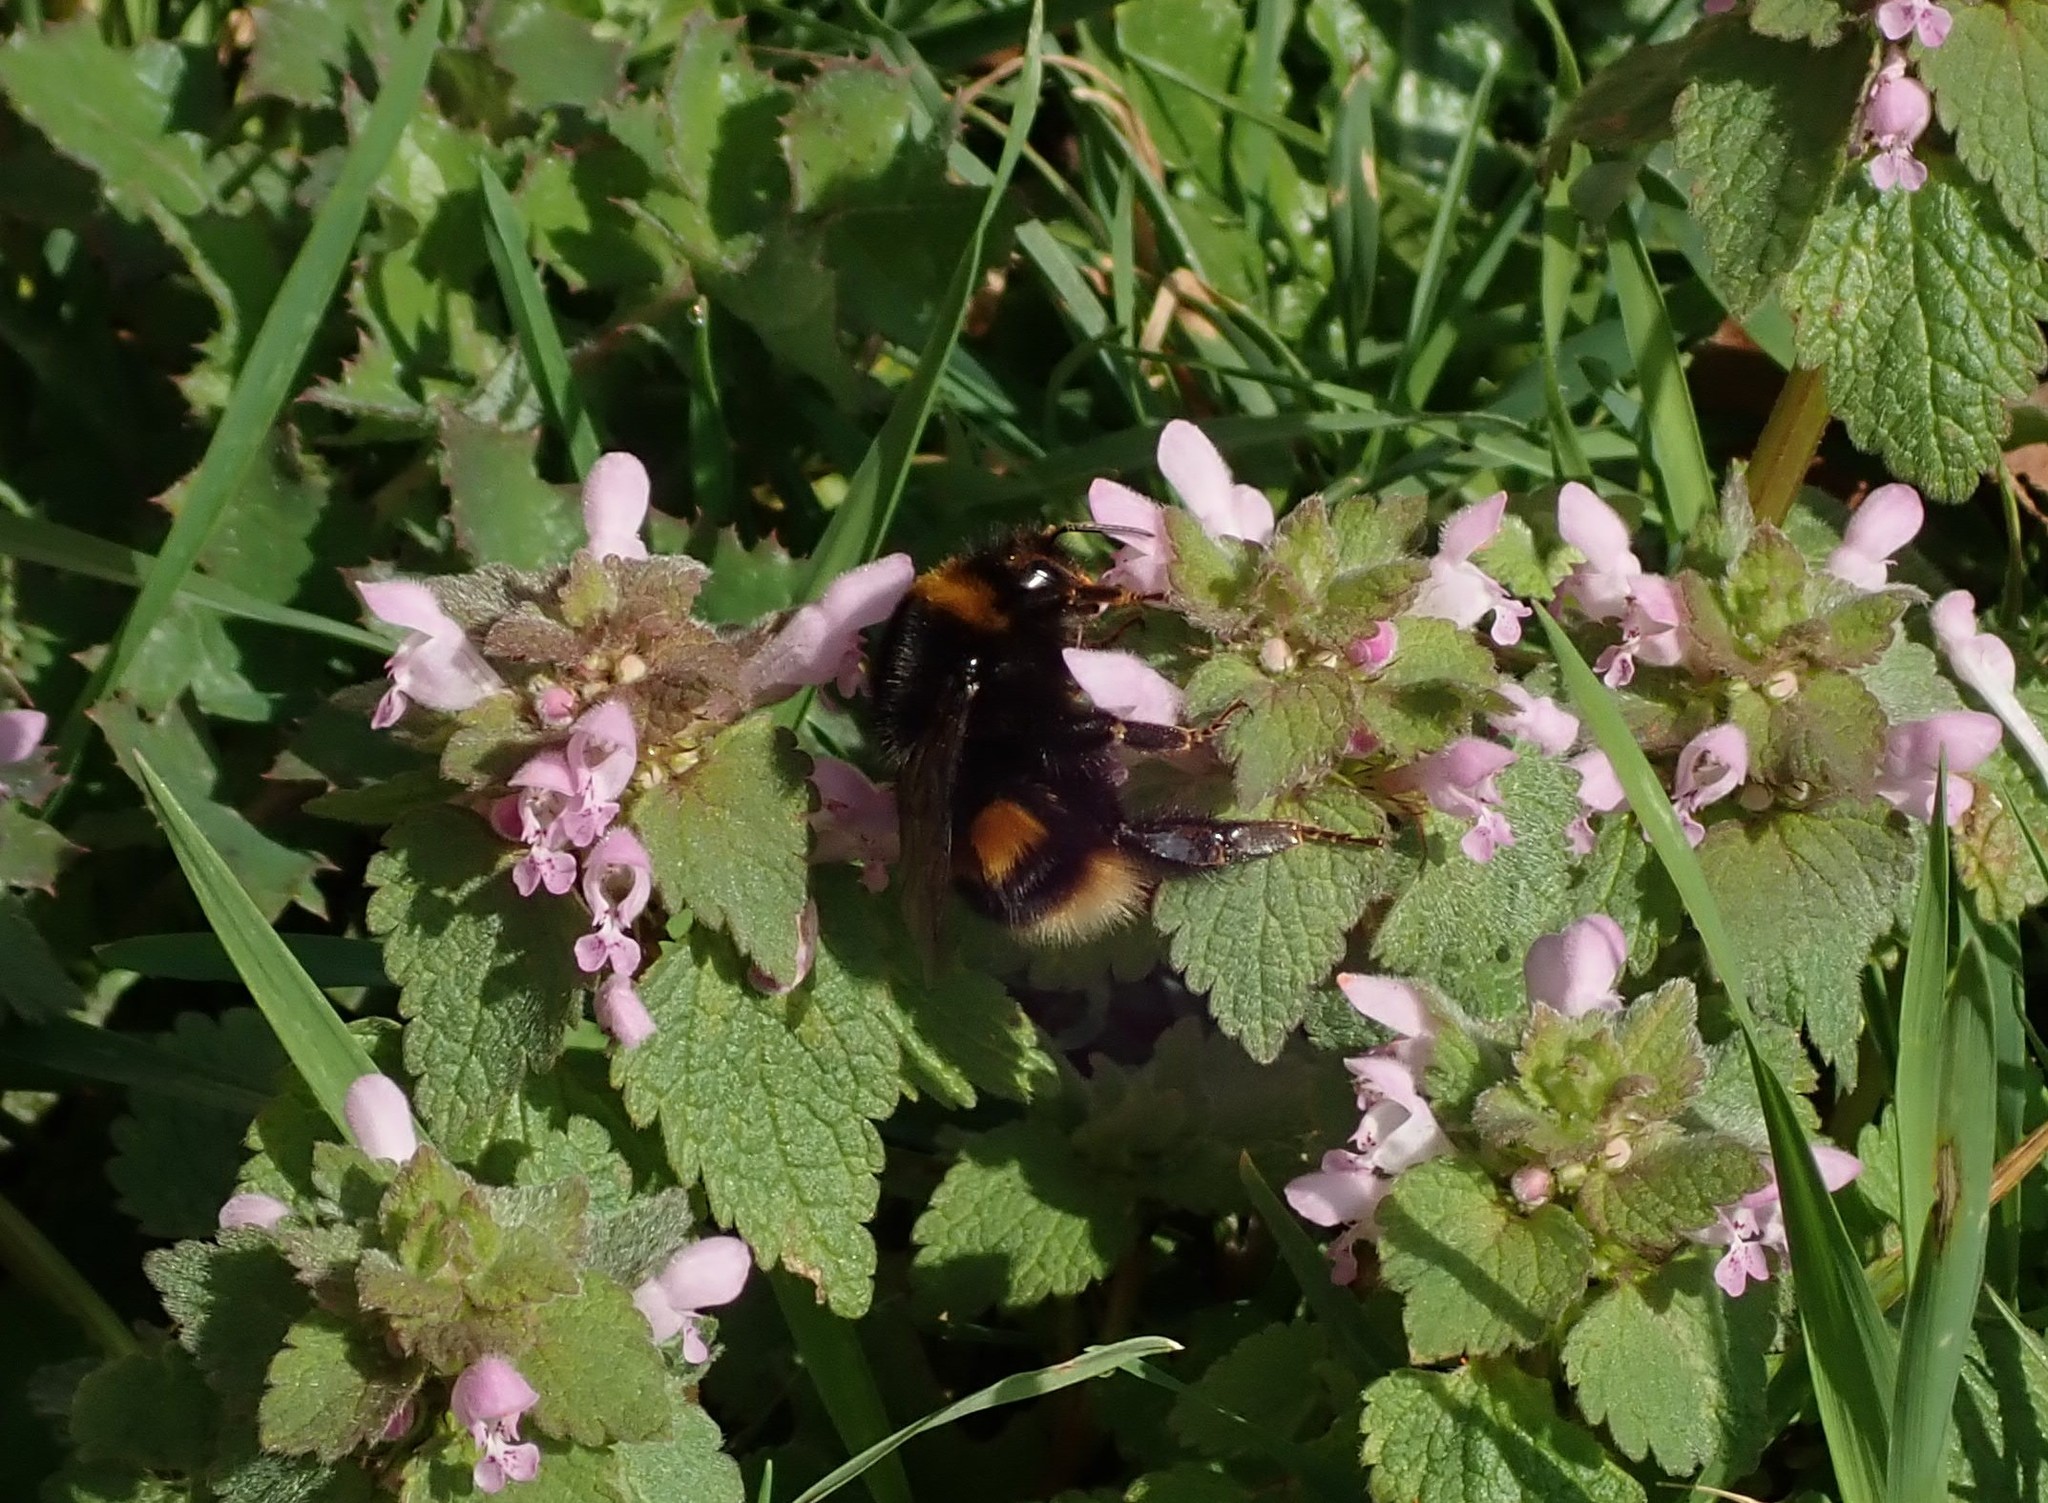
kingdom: Animalia
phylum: Arthropoda
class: Insecta
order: Hymenoptera
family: Apidae
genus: Bombus
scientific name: Bombus terrestris
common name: Buff-tailed bumblebee
